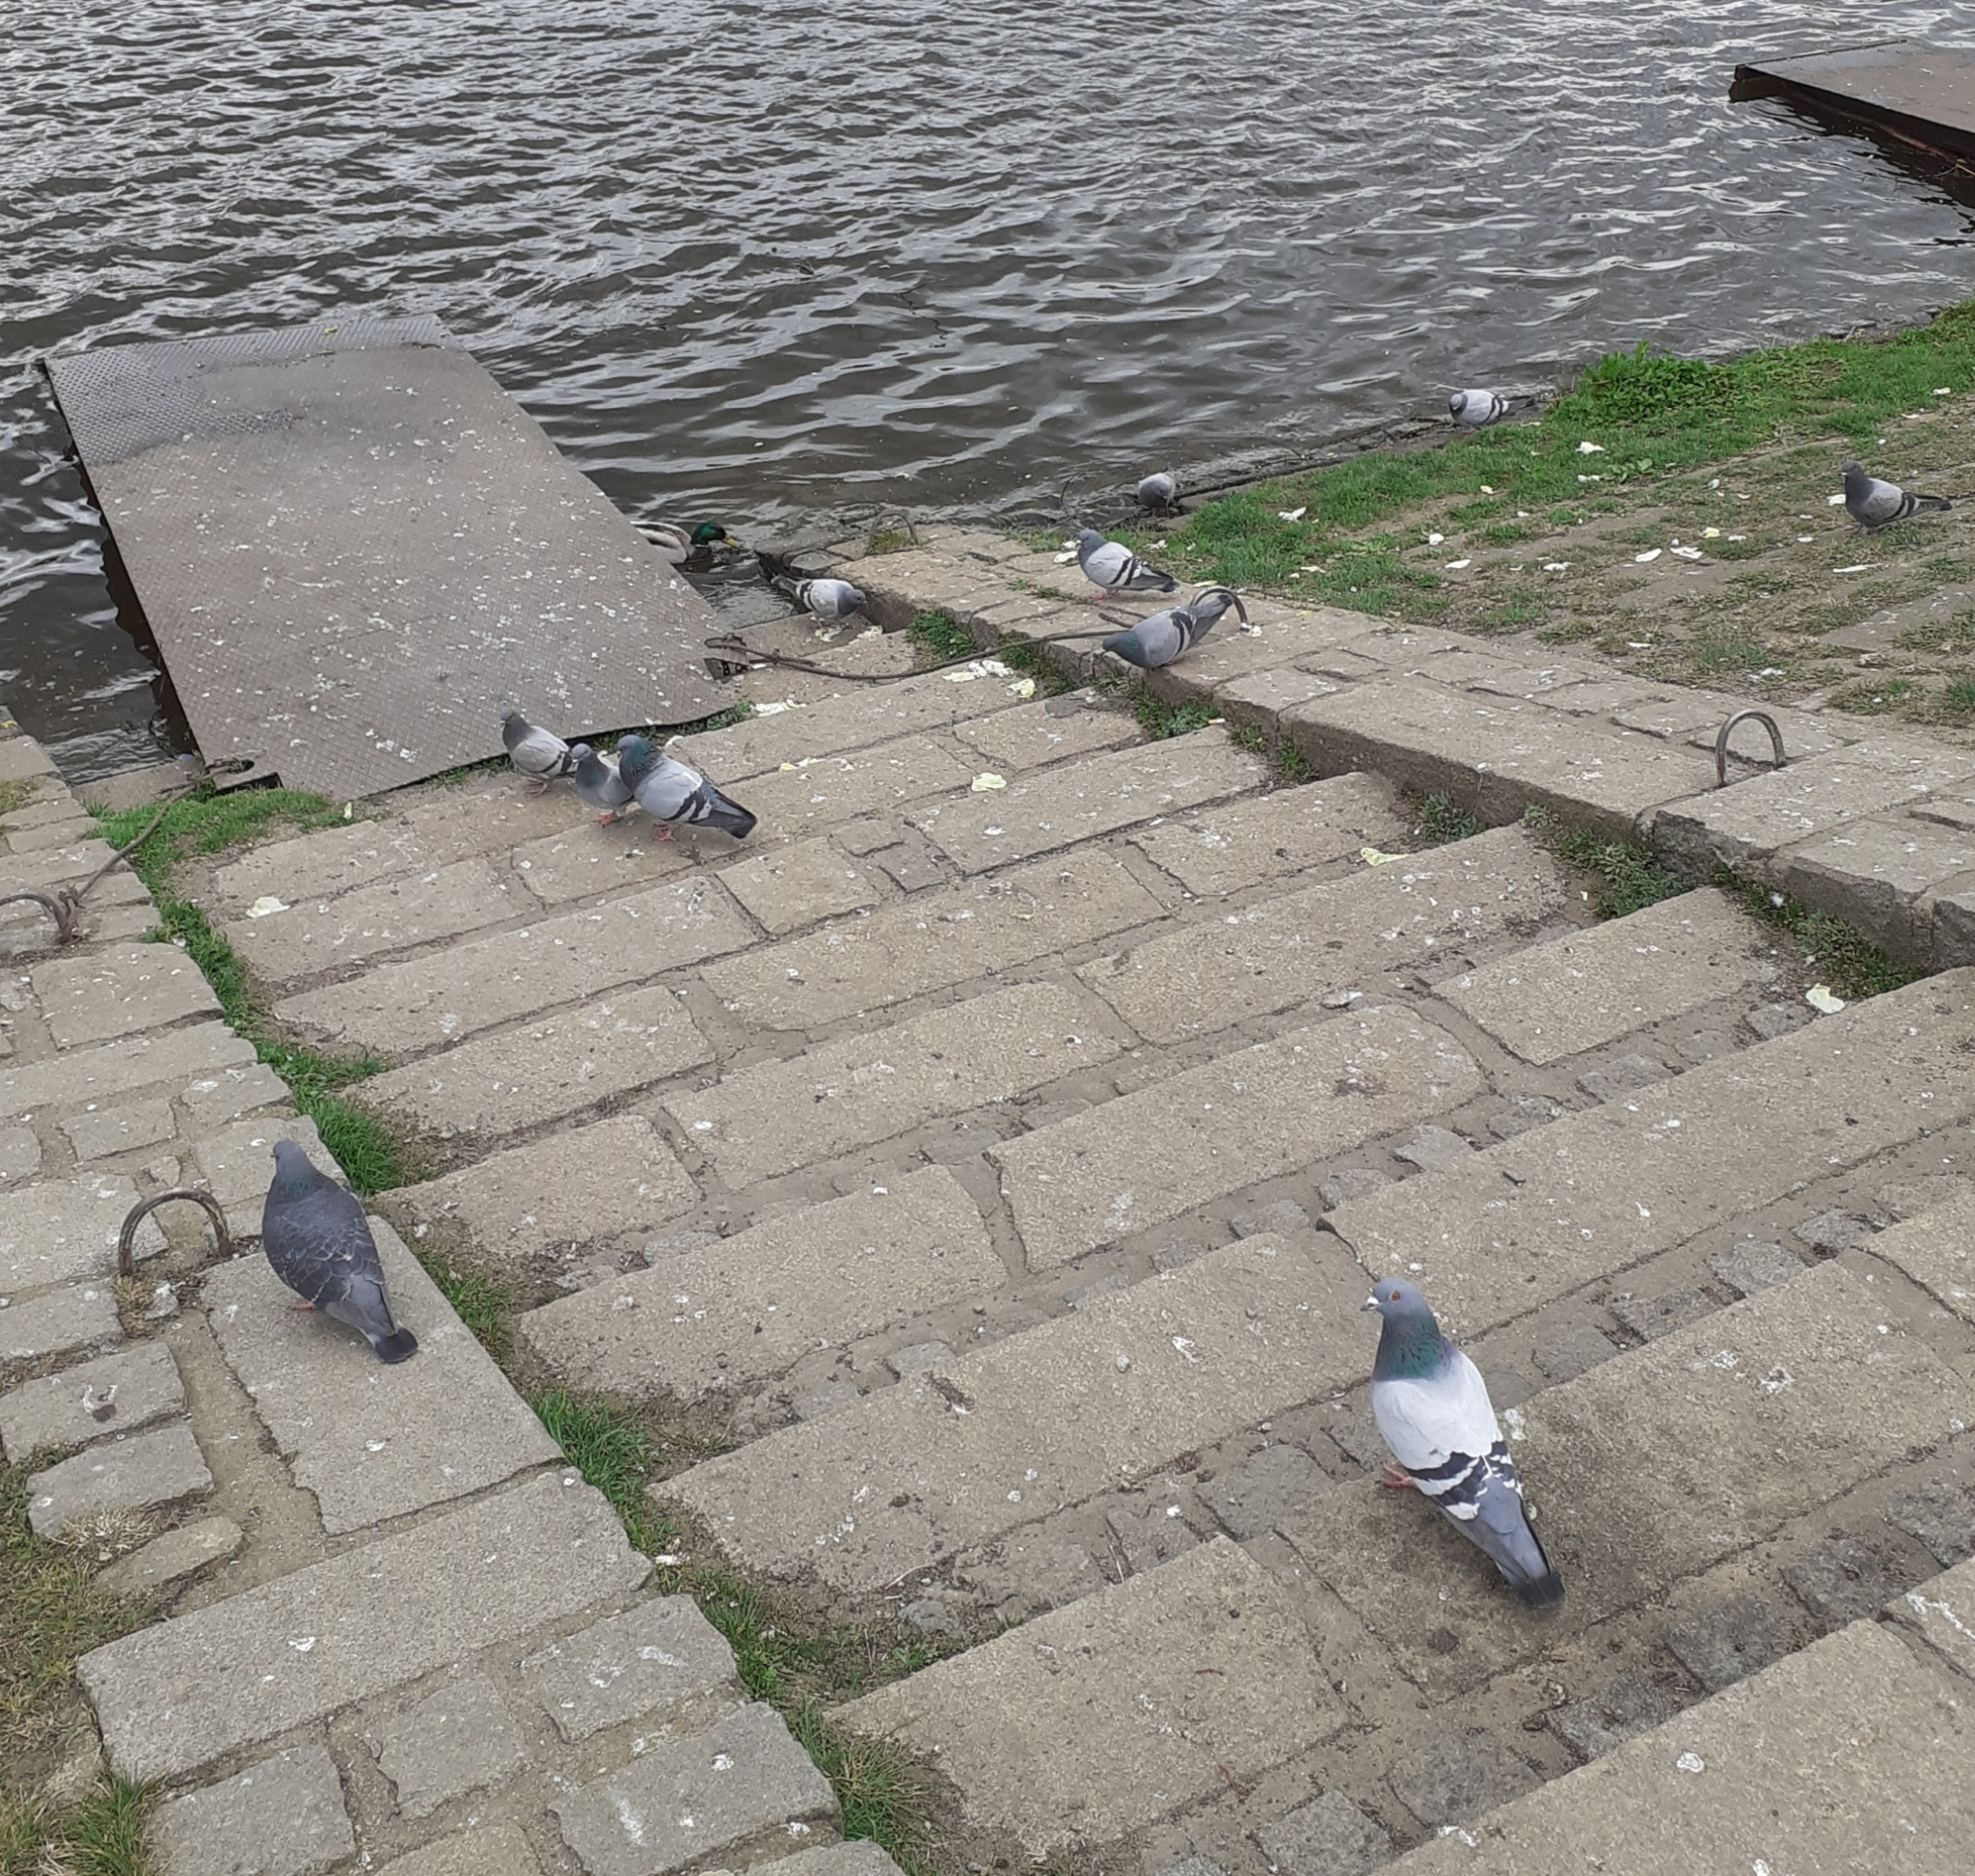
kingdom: Animalia
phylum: Chordata
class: Aves
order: Columbiformes
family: Columbidae
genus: Columba
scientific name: Columba livia
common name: Rock pigeon
